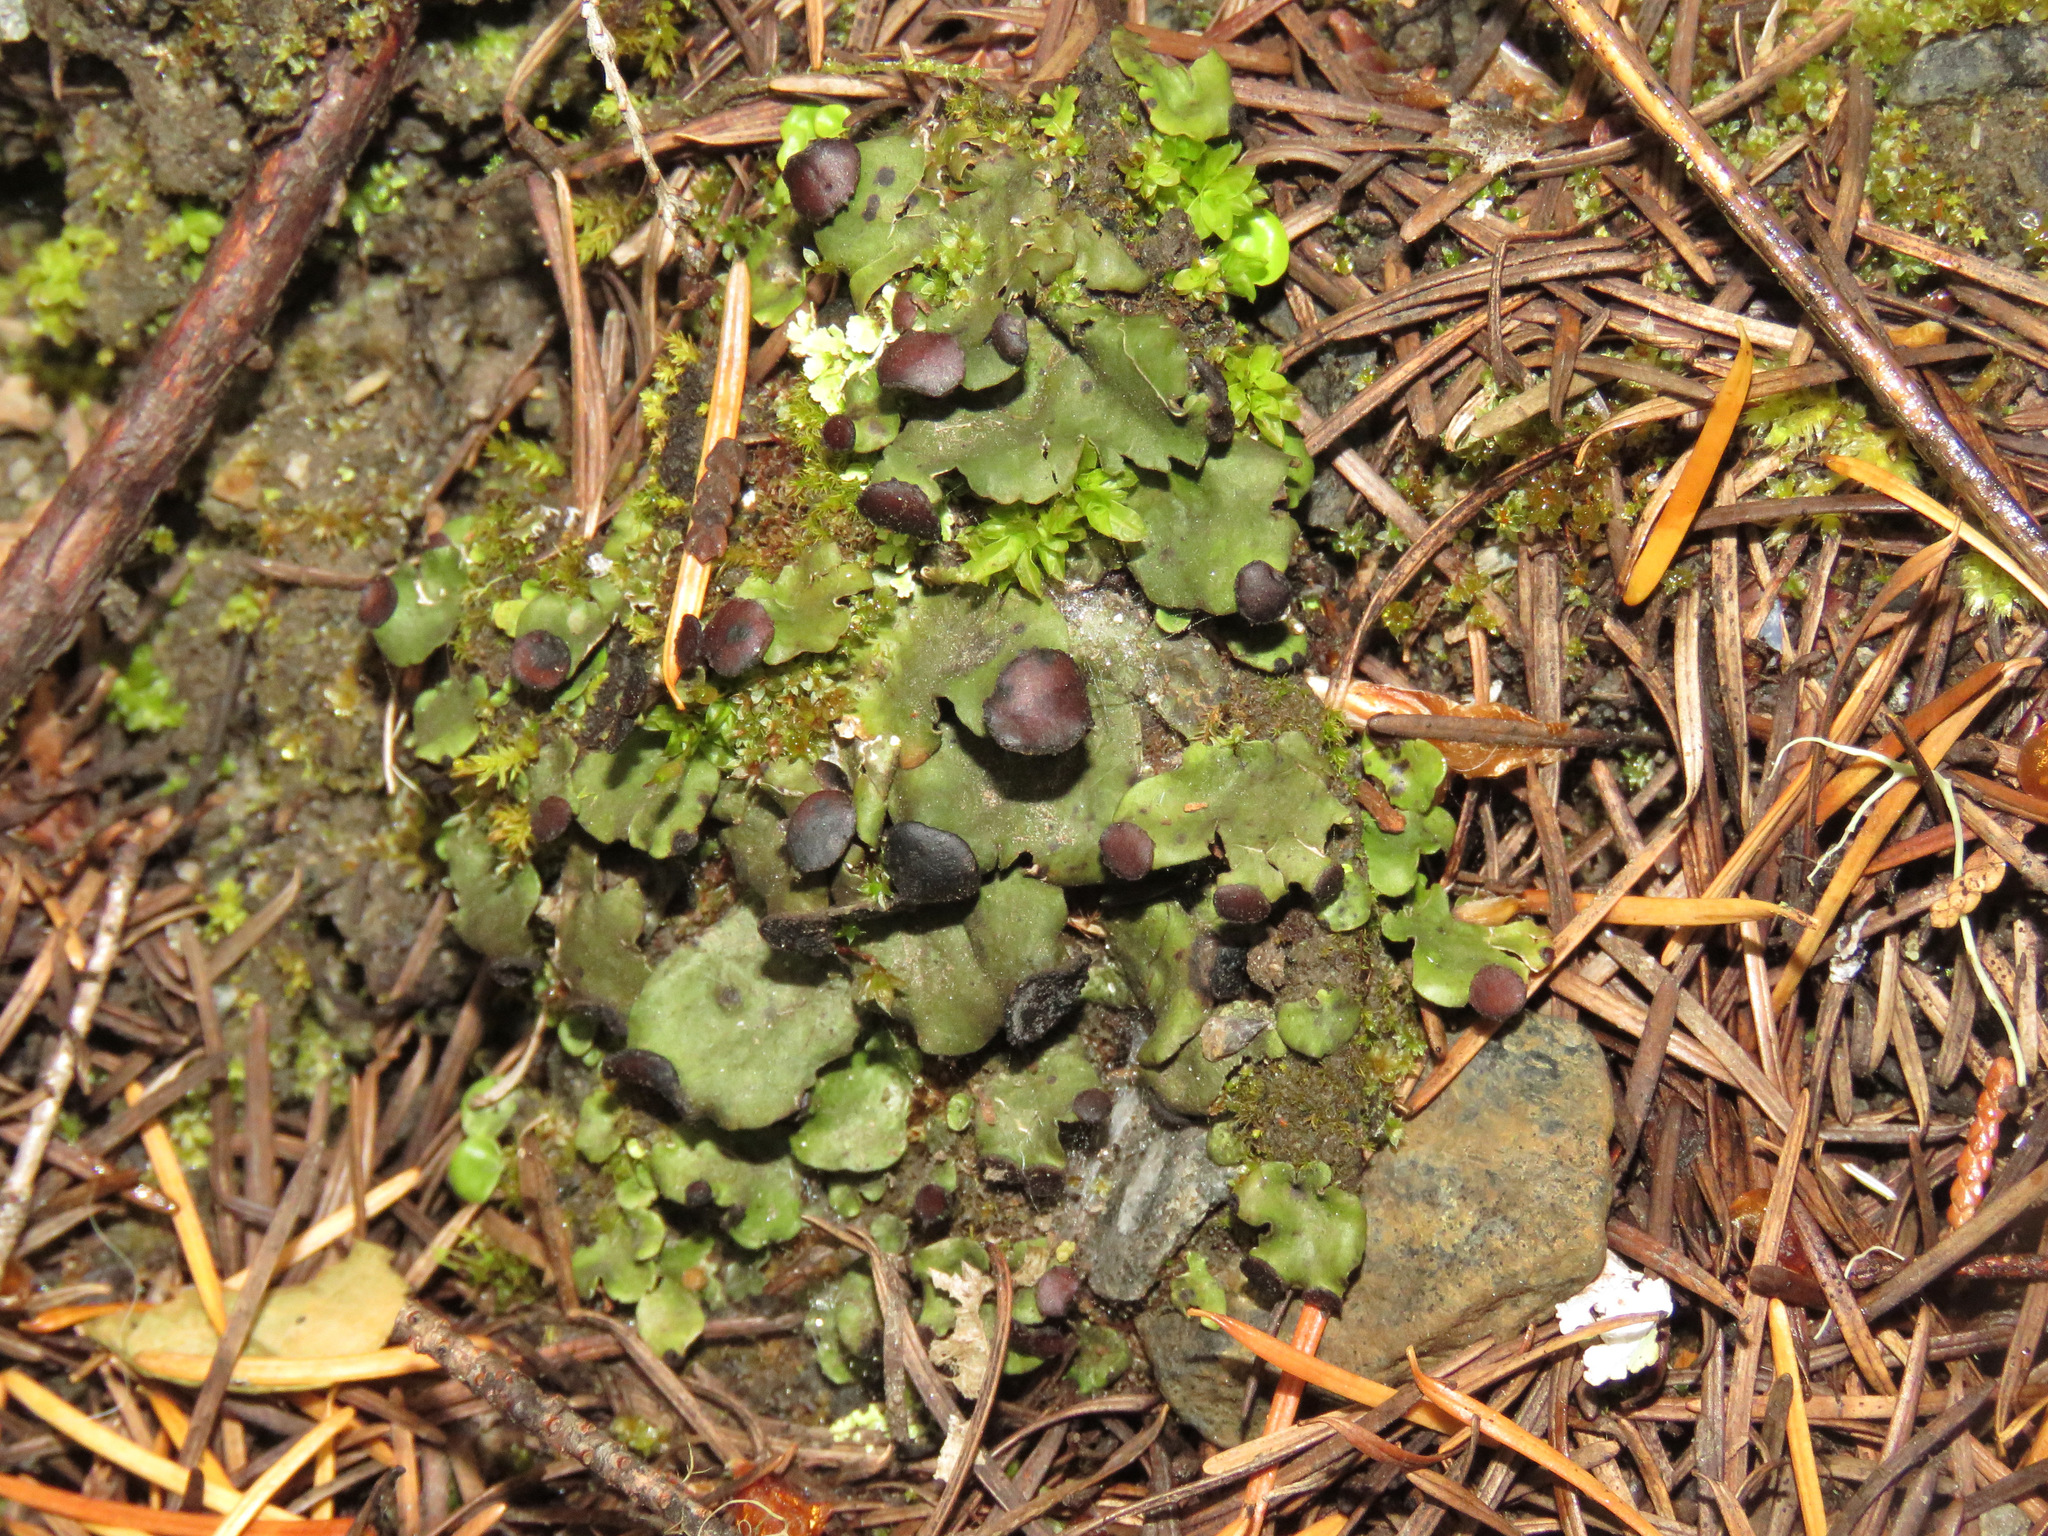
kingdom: Fungi
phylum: Ascomycota
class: Lecanoromycetes
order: Peltigerales
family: Peltigeraceae
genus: Peltigera
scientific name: Peltigera venosa
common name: Pixie gowns lichen
